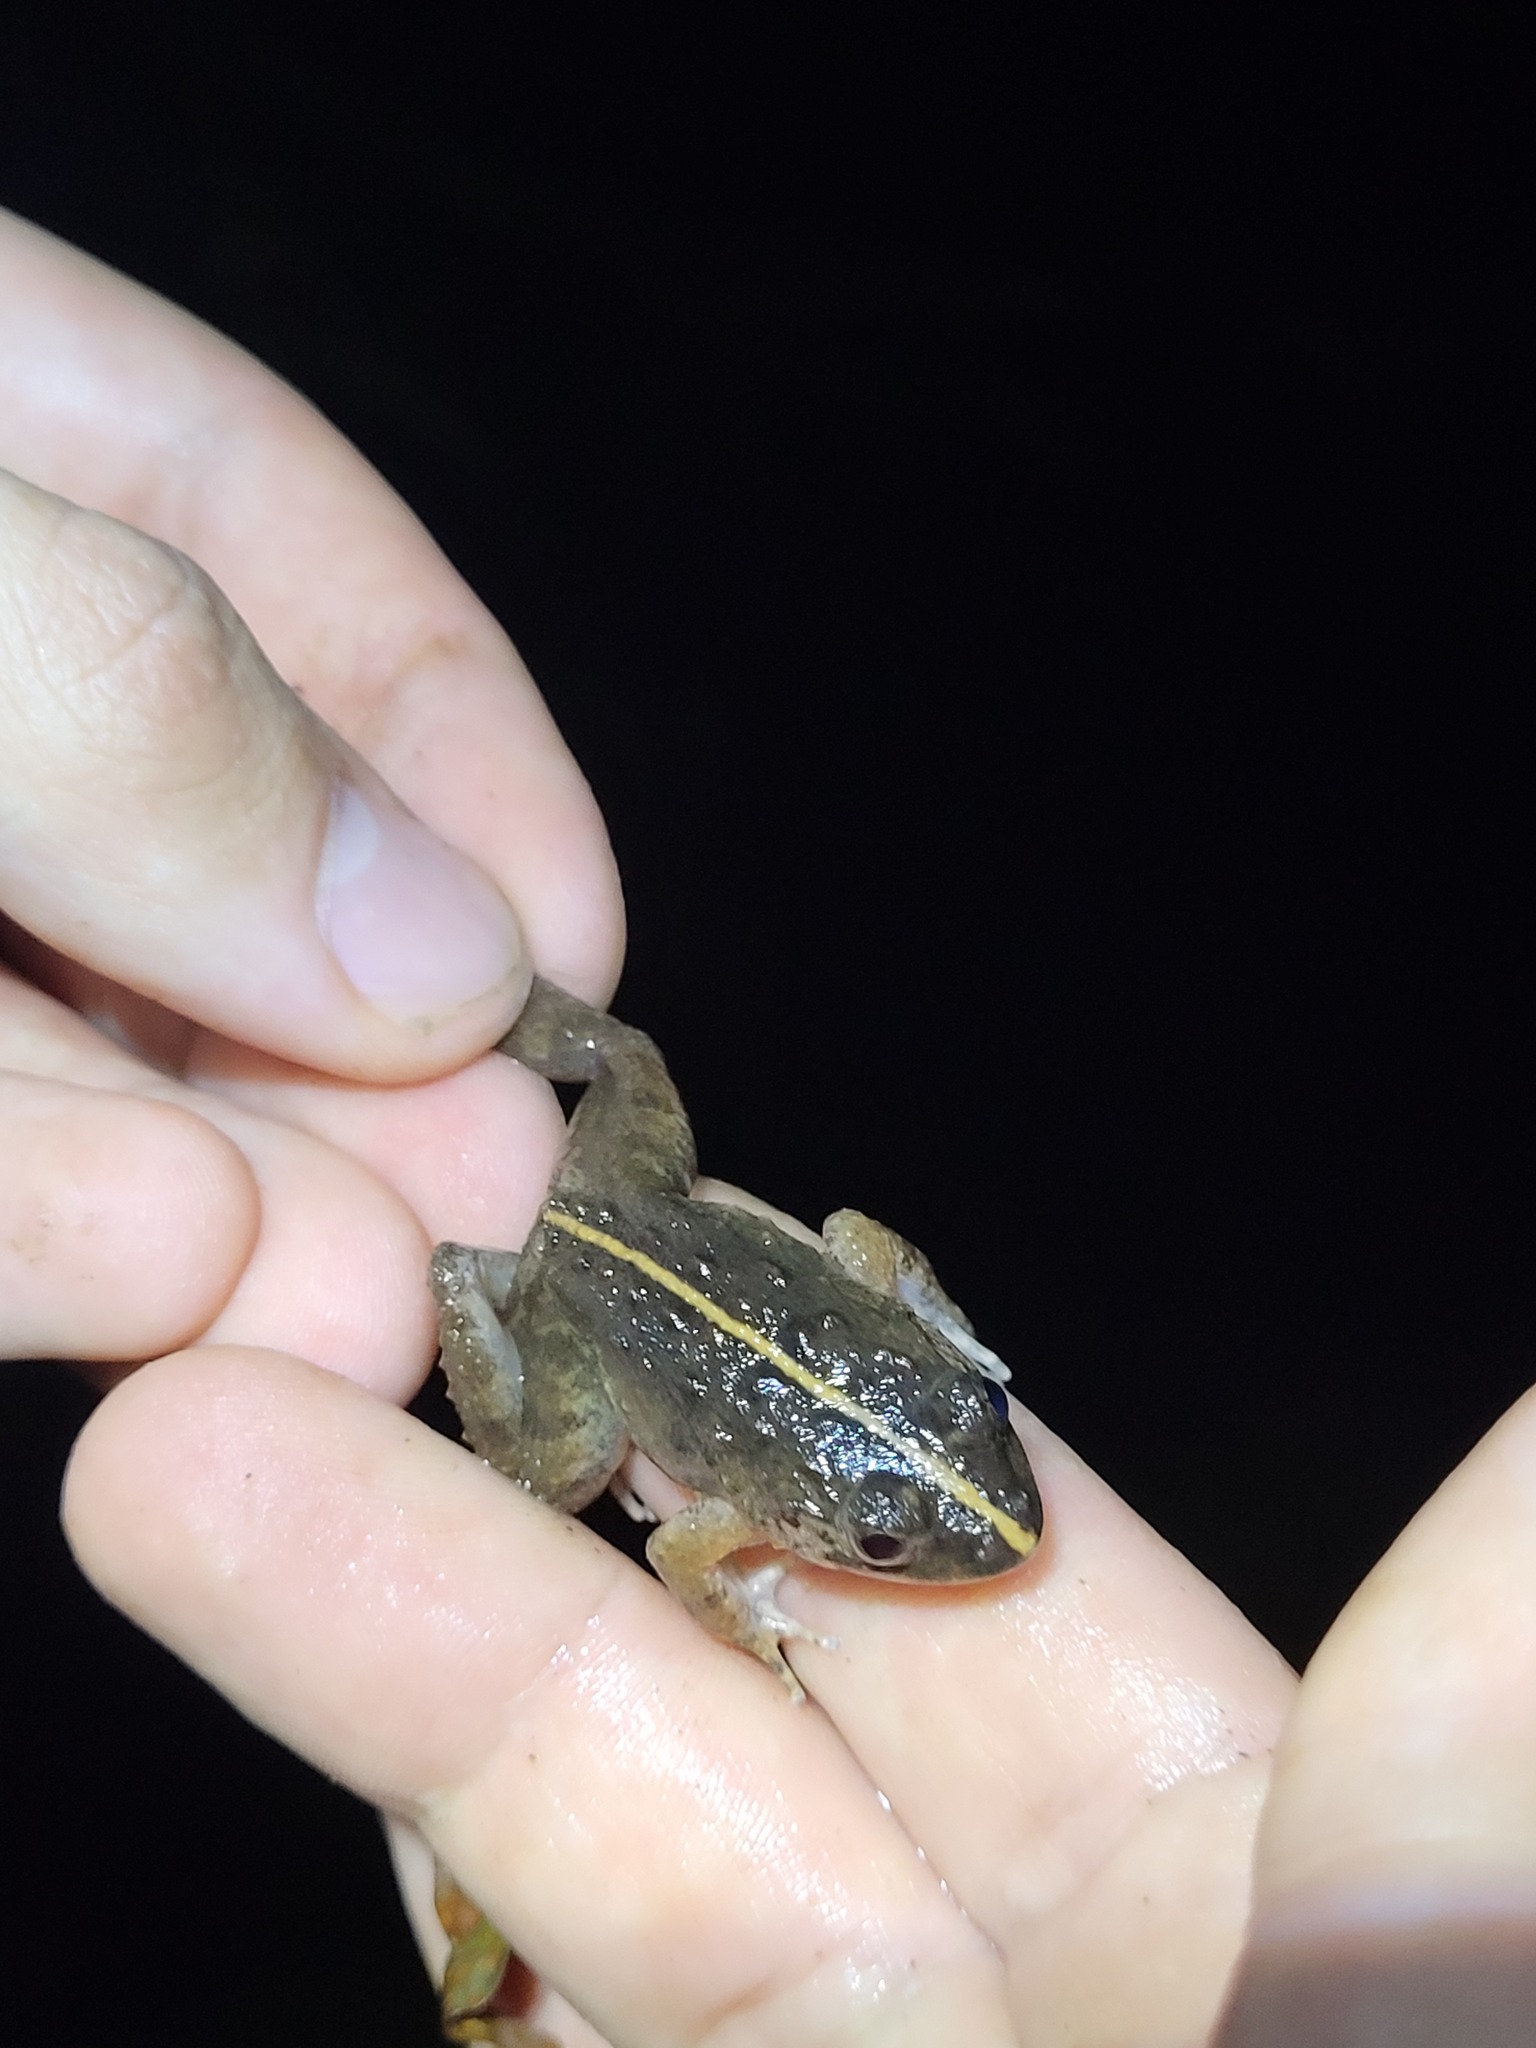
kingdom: Animalia
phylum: Chordata
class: Amphibia
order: Anura
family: Dicroglossidae
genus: Fejervarya
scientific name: Fejervarya limnocharis
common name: Asian grass frog/common pond frog/field frog/grass frog/indian rice frog
